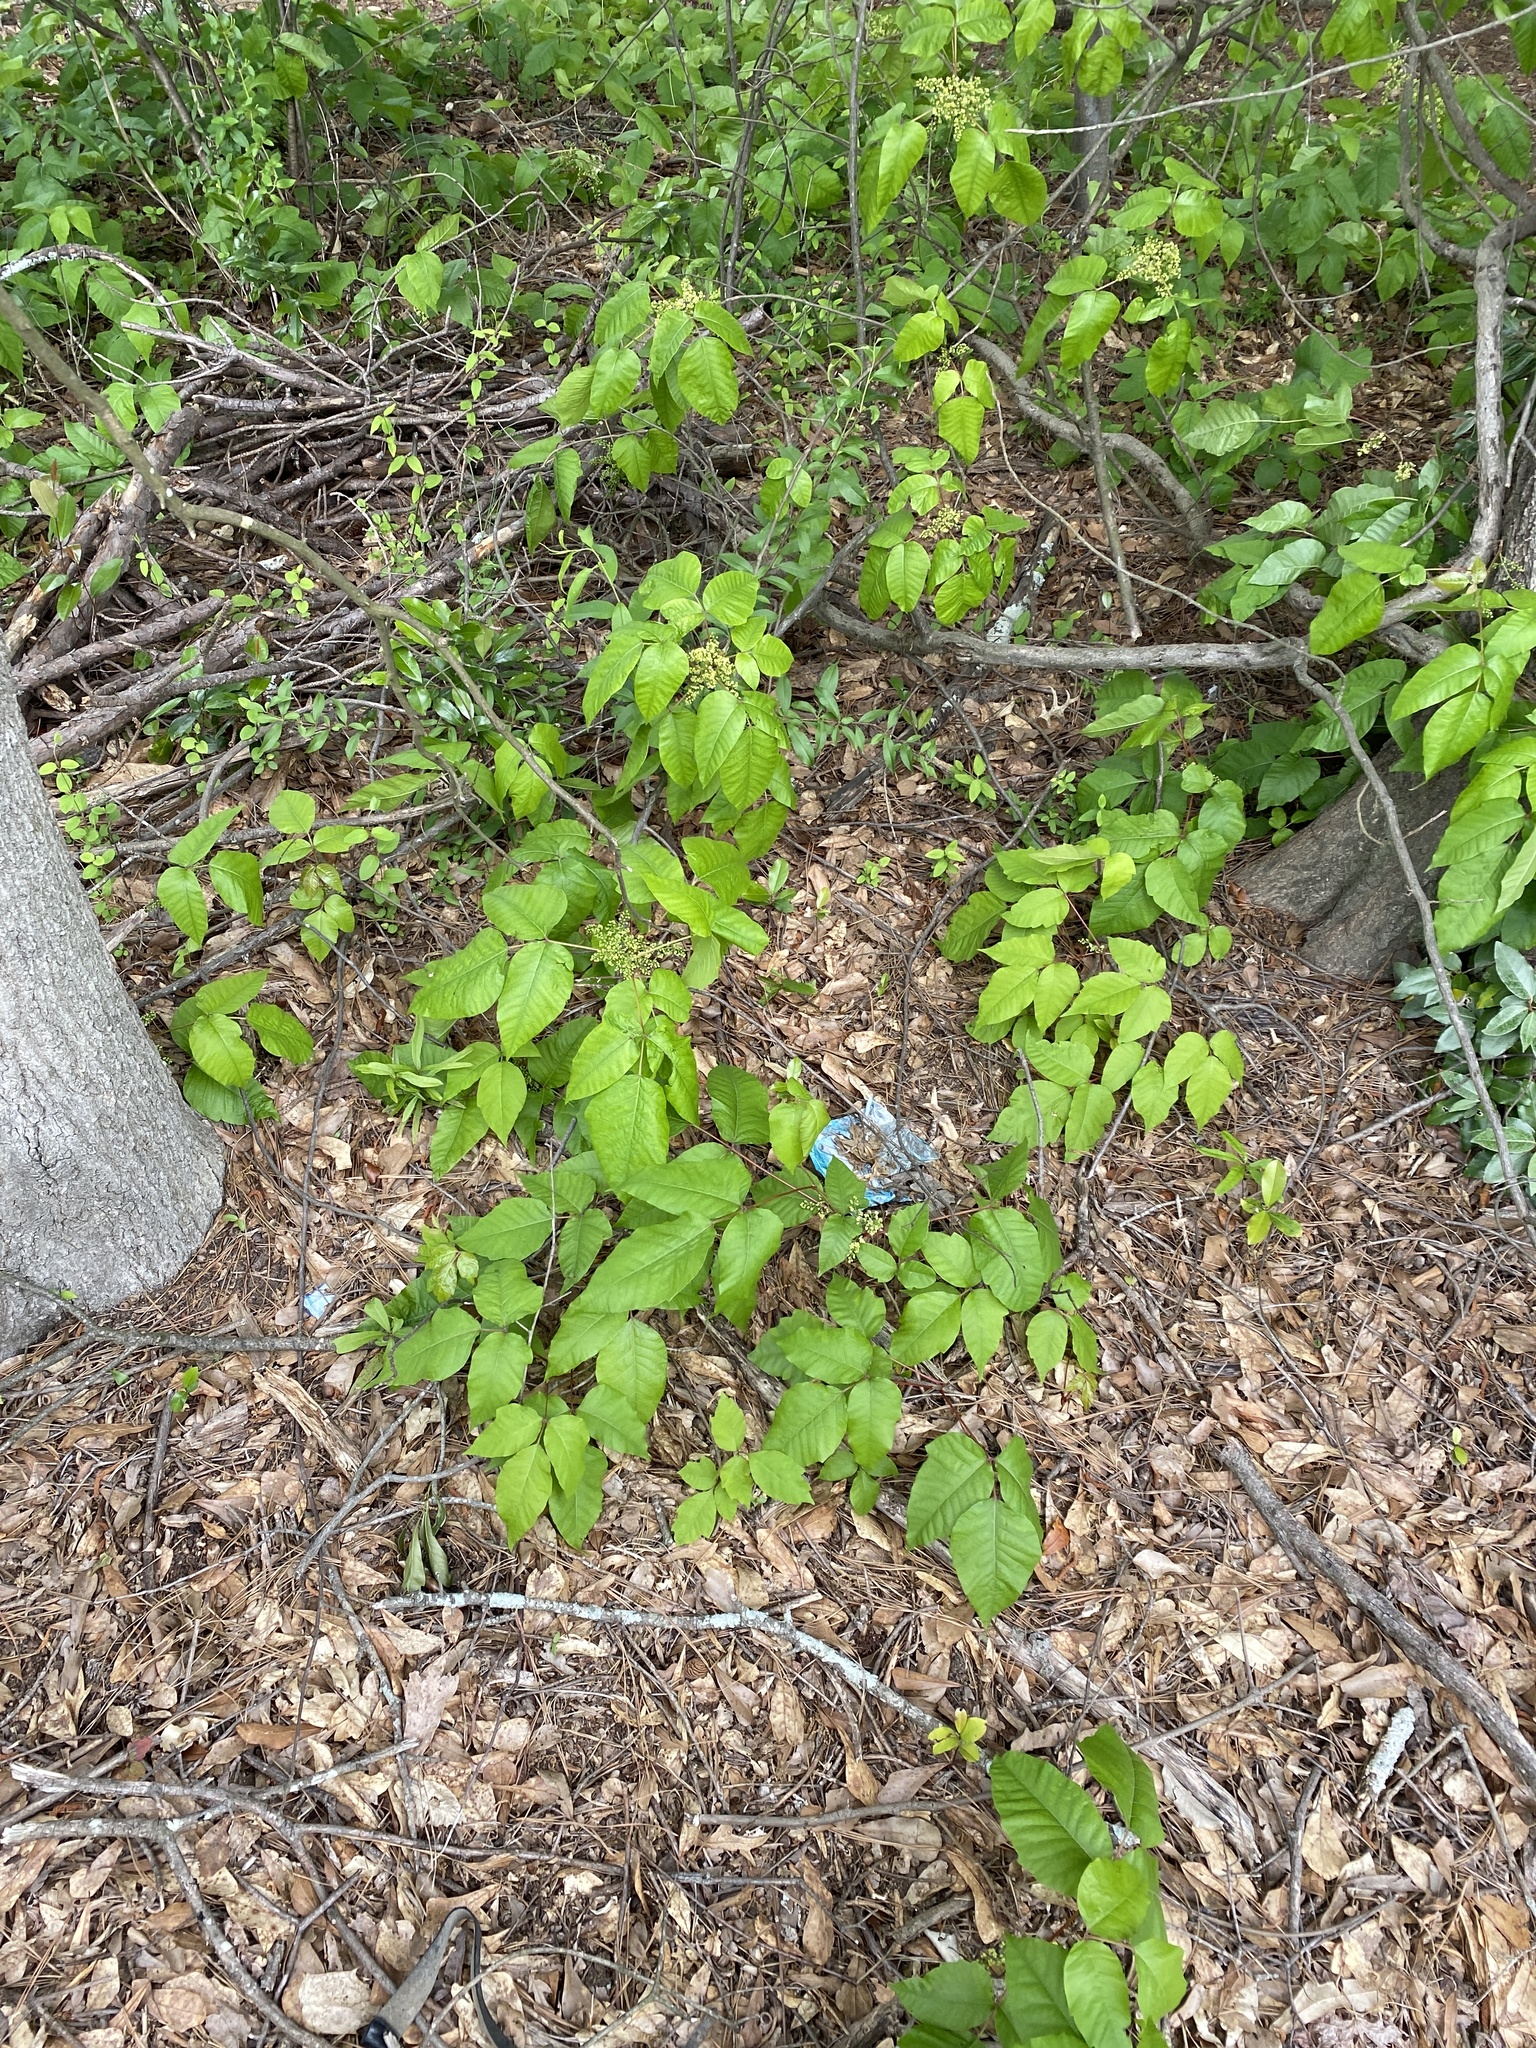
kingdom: Plantae
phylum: Tracheophyta
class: Magnoliopsida
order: Sapindales
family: Anacardiaceae
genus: Toxicodendron
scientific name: Toxicodendron radicans
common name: Poison ivy
